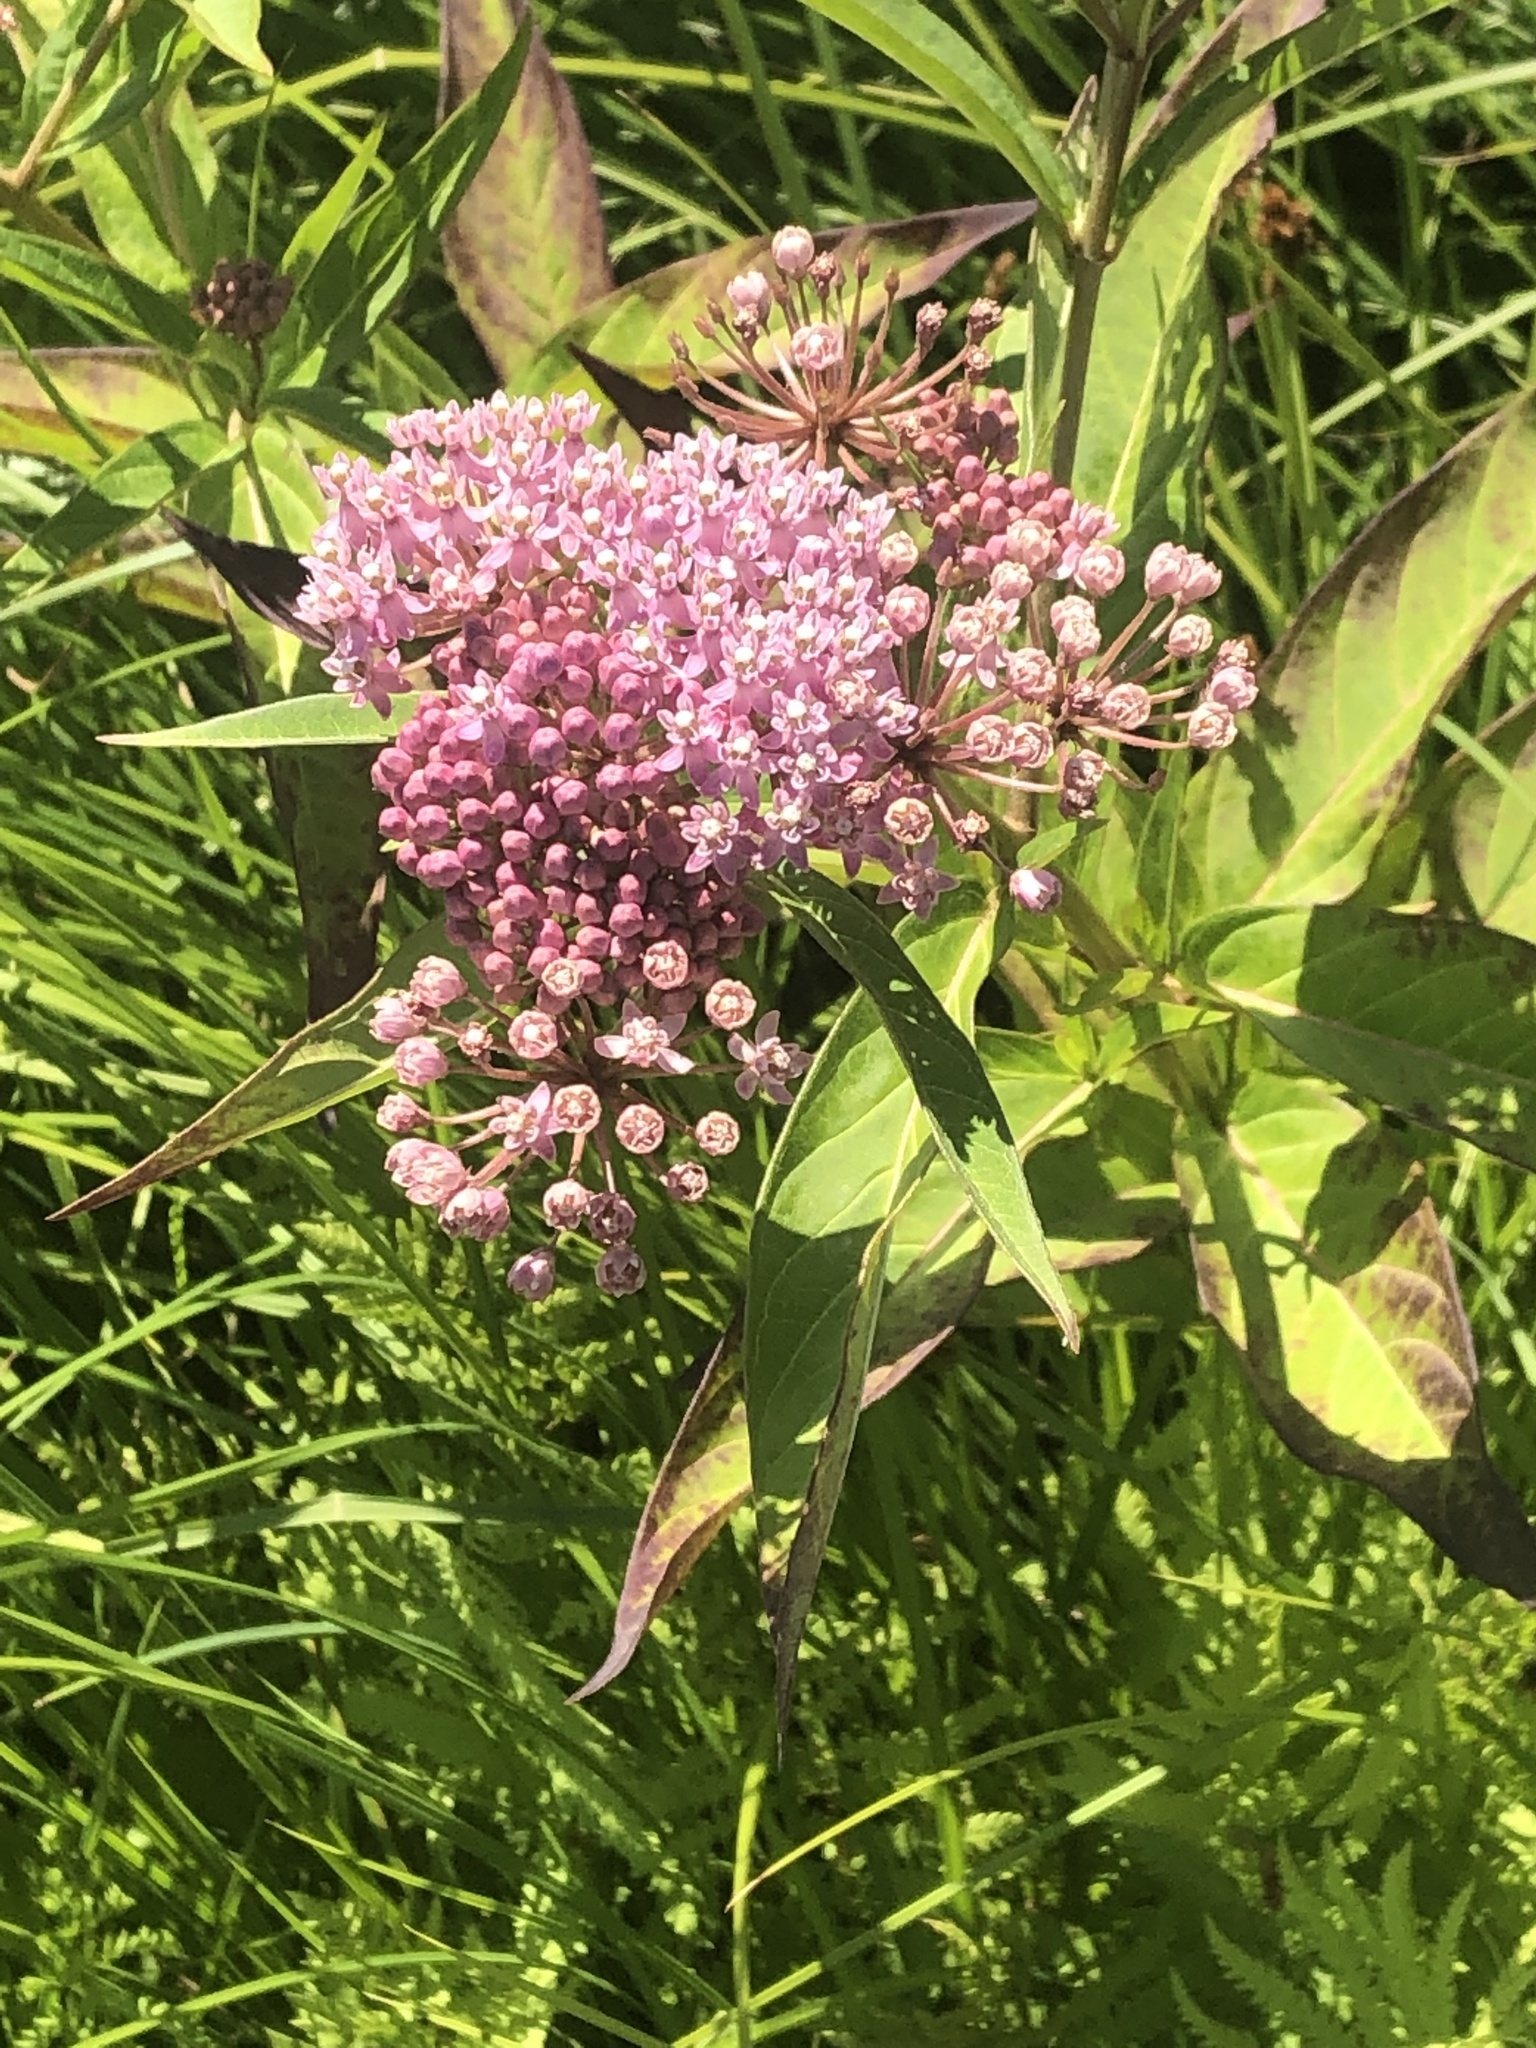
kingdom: Plantae
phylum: Tracheophyta
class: Magnoliopsida
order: Gentianales
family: Apocynaceae
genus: Asclepias
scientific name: Asclepias incarnata
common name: Swamp milkweed
